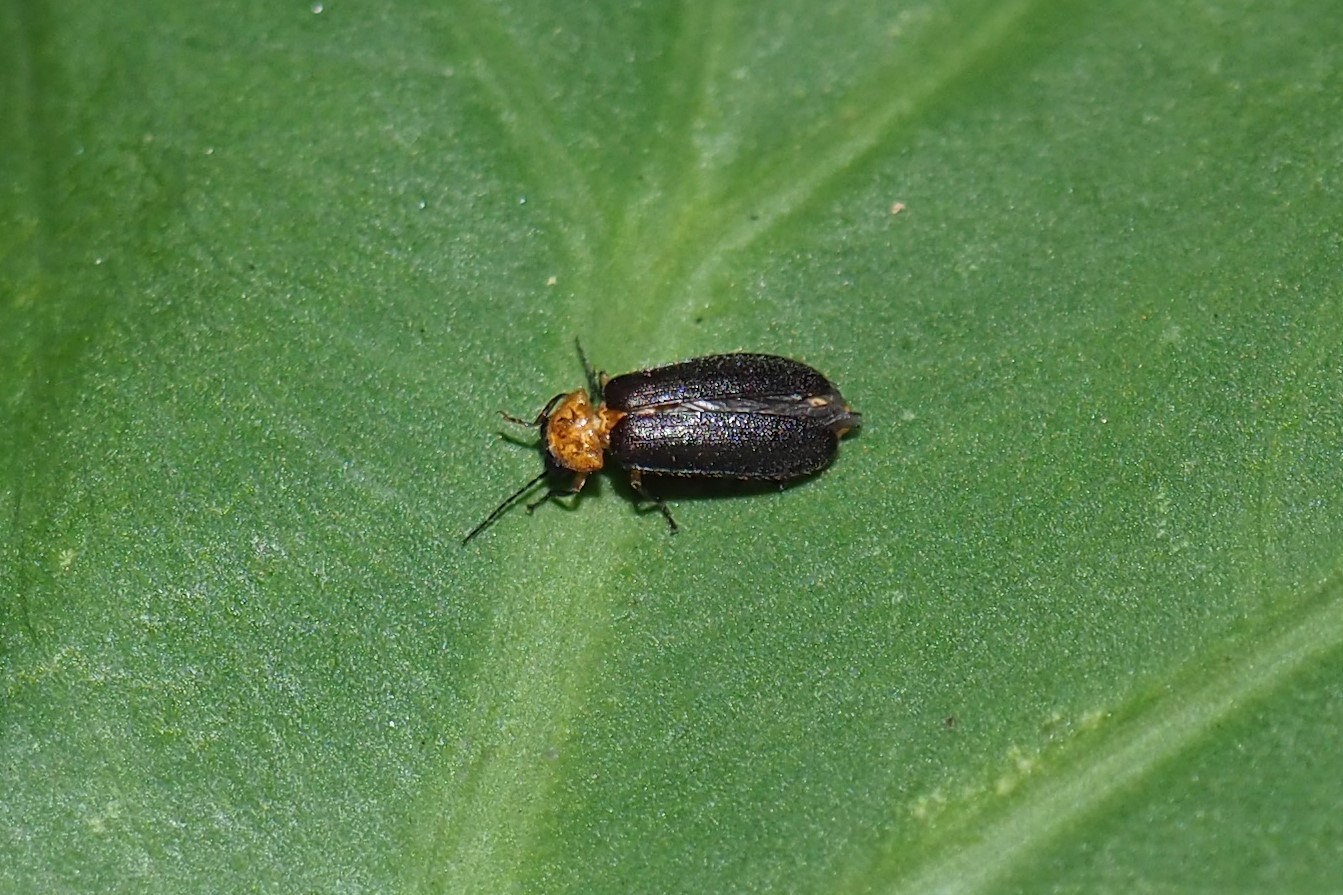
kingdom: Animalia
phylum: Arthropoda
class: Insecta
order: Coleoptera
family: Lampyridae
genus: Abscondita
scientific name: Abscondita cerata
